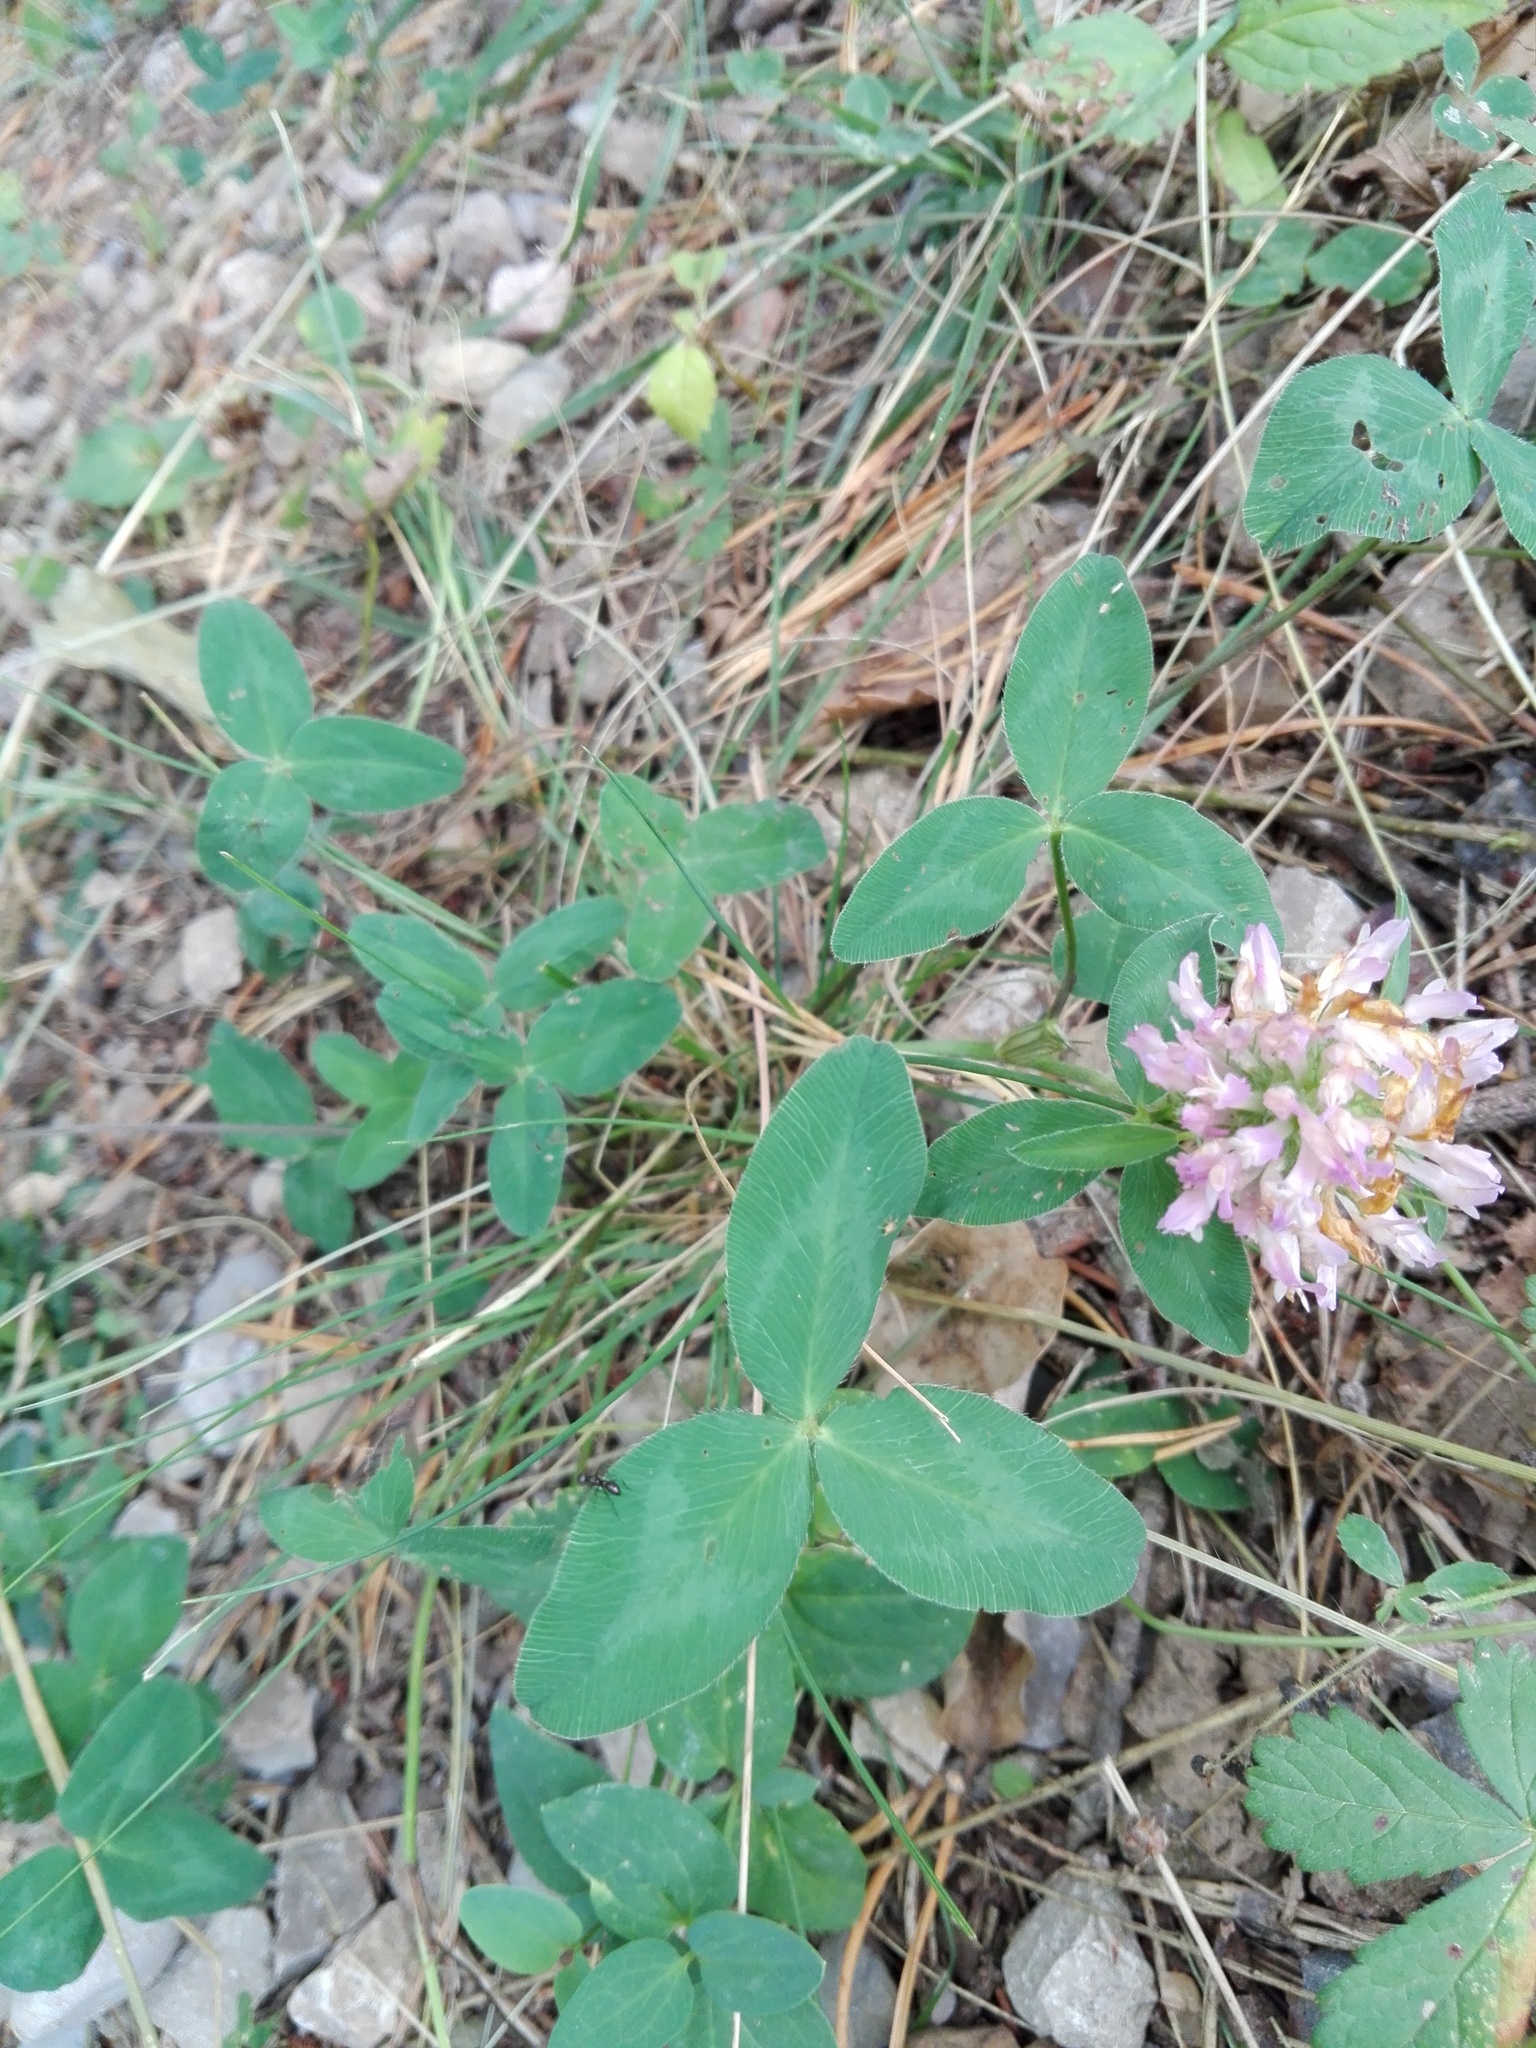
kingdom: Plantae
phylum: Tracheophyta
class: Magnoliopsida
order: Fabales
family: Fabaceae
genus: Trifolium
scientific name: Trifolium pratense
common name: Red clover
